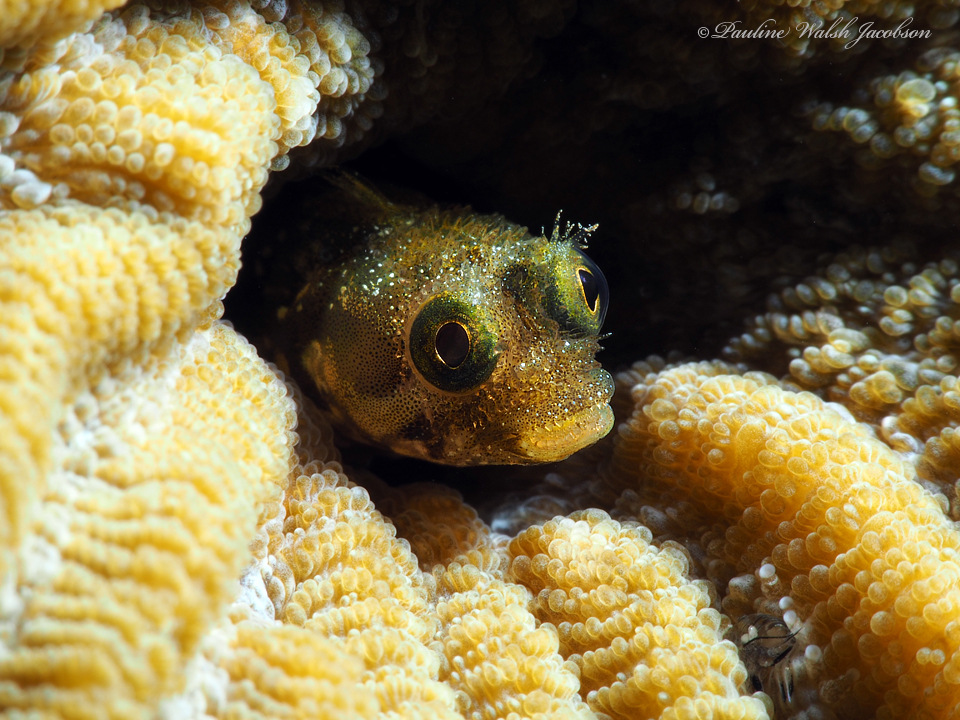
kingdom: Animalia
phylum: Chordata
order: Perciformes
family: Chaenopsidae
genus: Acanthemblemaria
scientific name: Acanthemblemaria spinosa
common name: Spinyhead blenny
